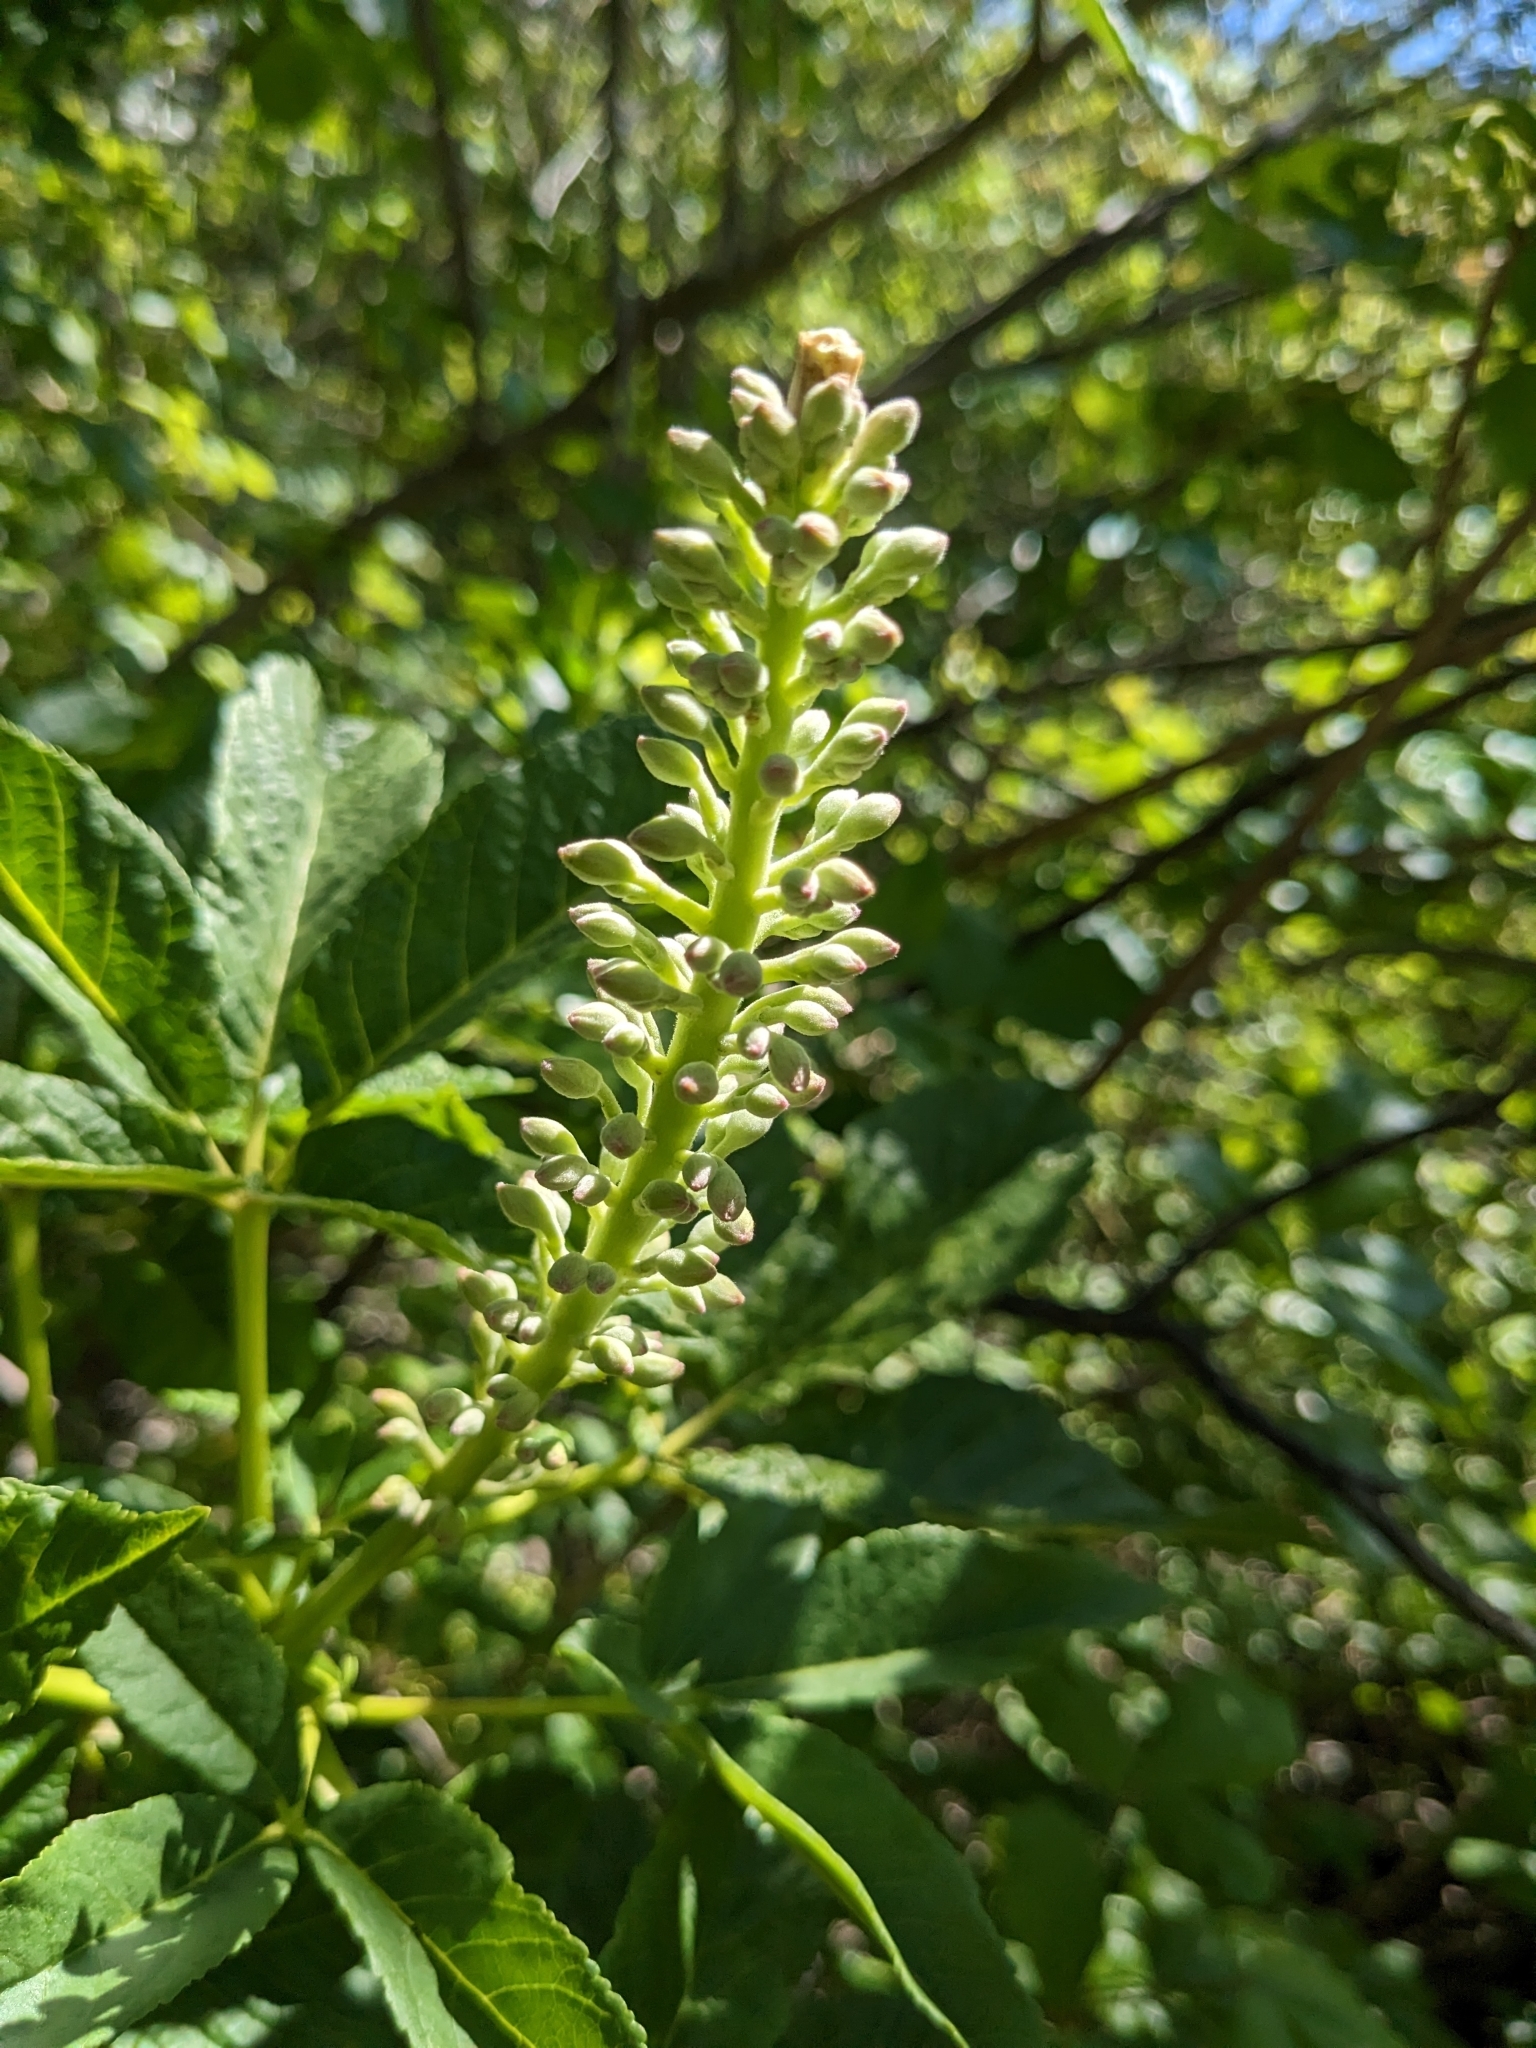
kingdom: Plantae
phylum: Tracheophyta
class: Magnoliopsida
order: Sapindales
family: Sapindaceae
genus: Aesculus
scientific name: Aesculus californica
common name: California buckeye
